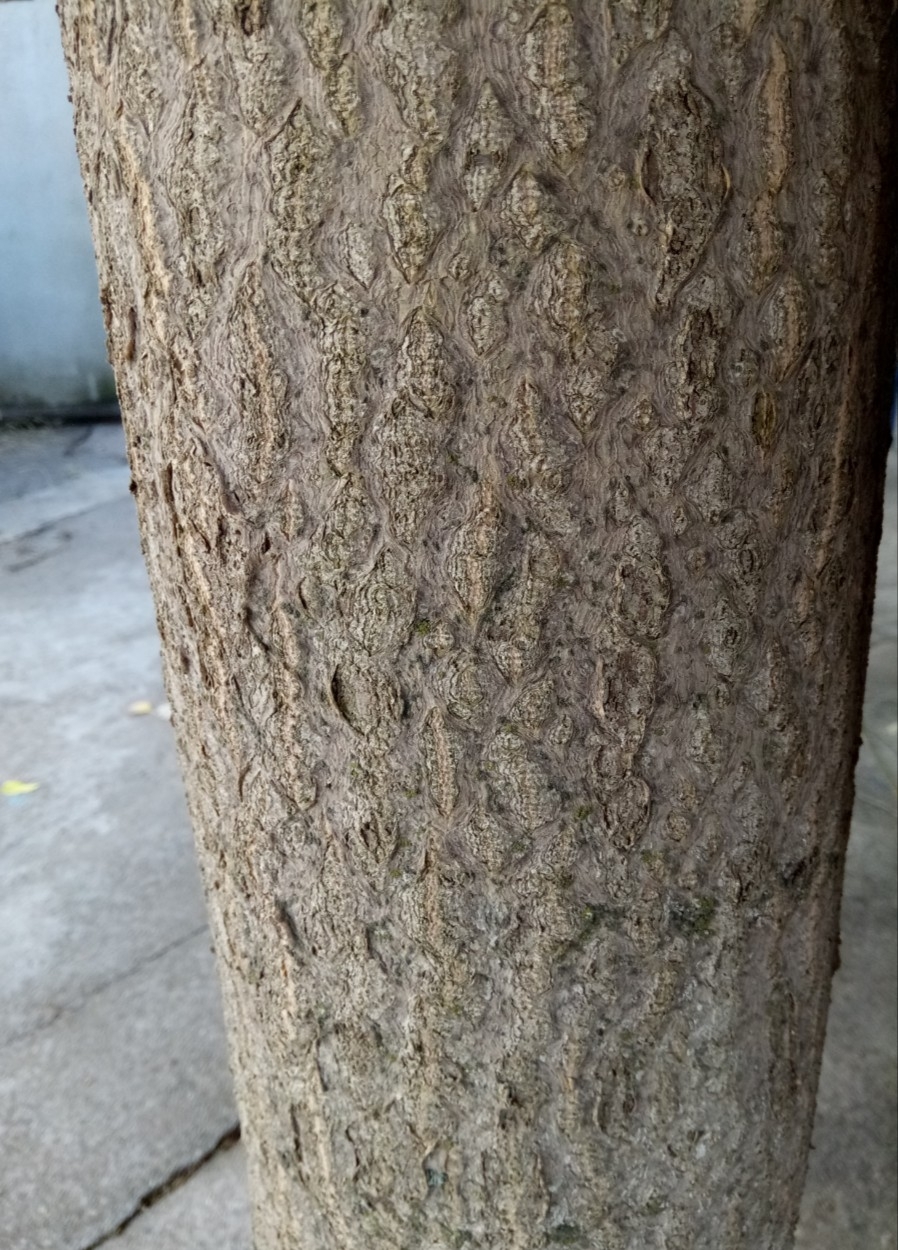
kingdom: Plantae
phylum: Tracheophyta
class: Magnoliopsida
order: Sapindales
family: Simaroubaceae
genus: Ailanthus
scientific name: Ailanthus altissima
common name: Tree-of-heaven
